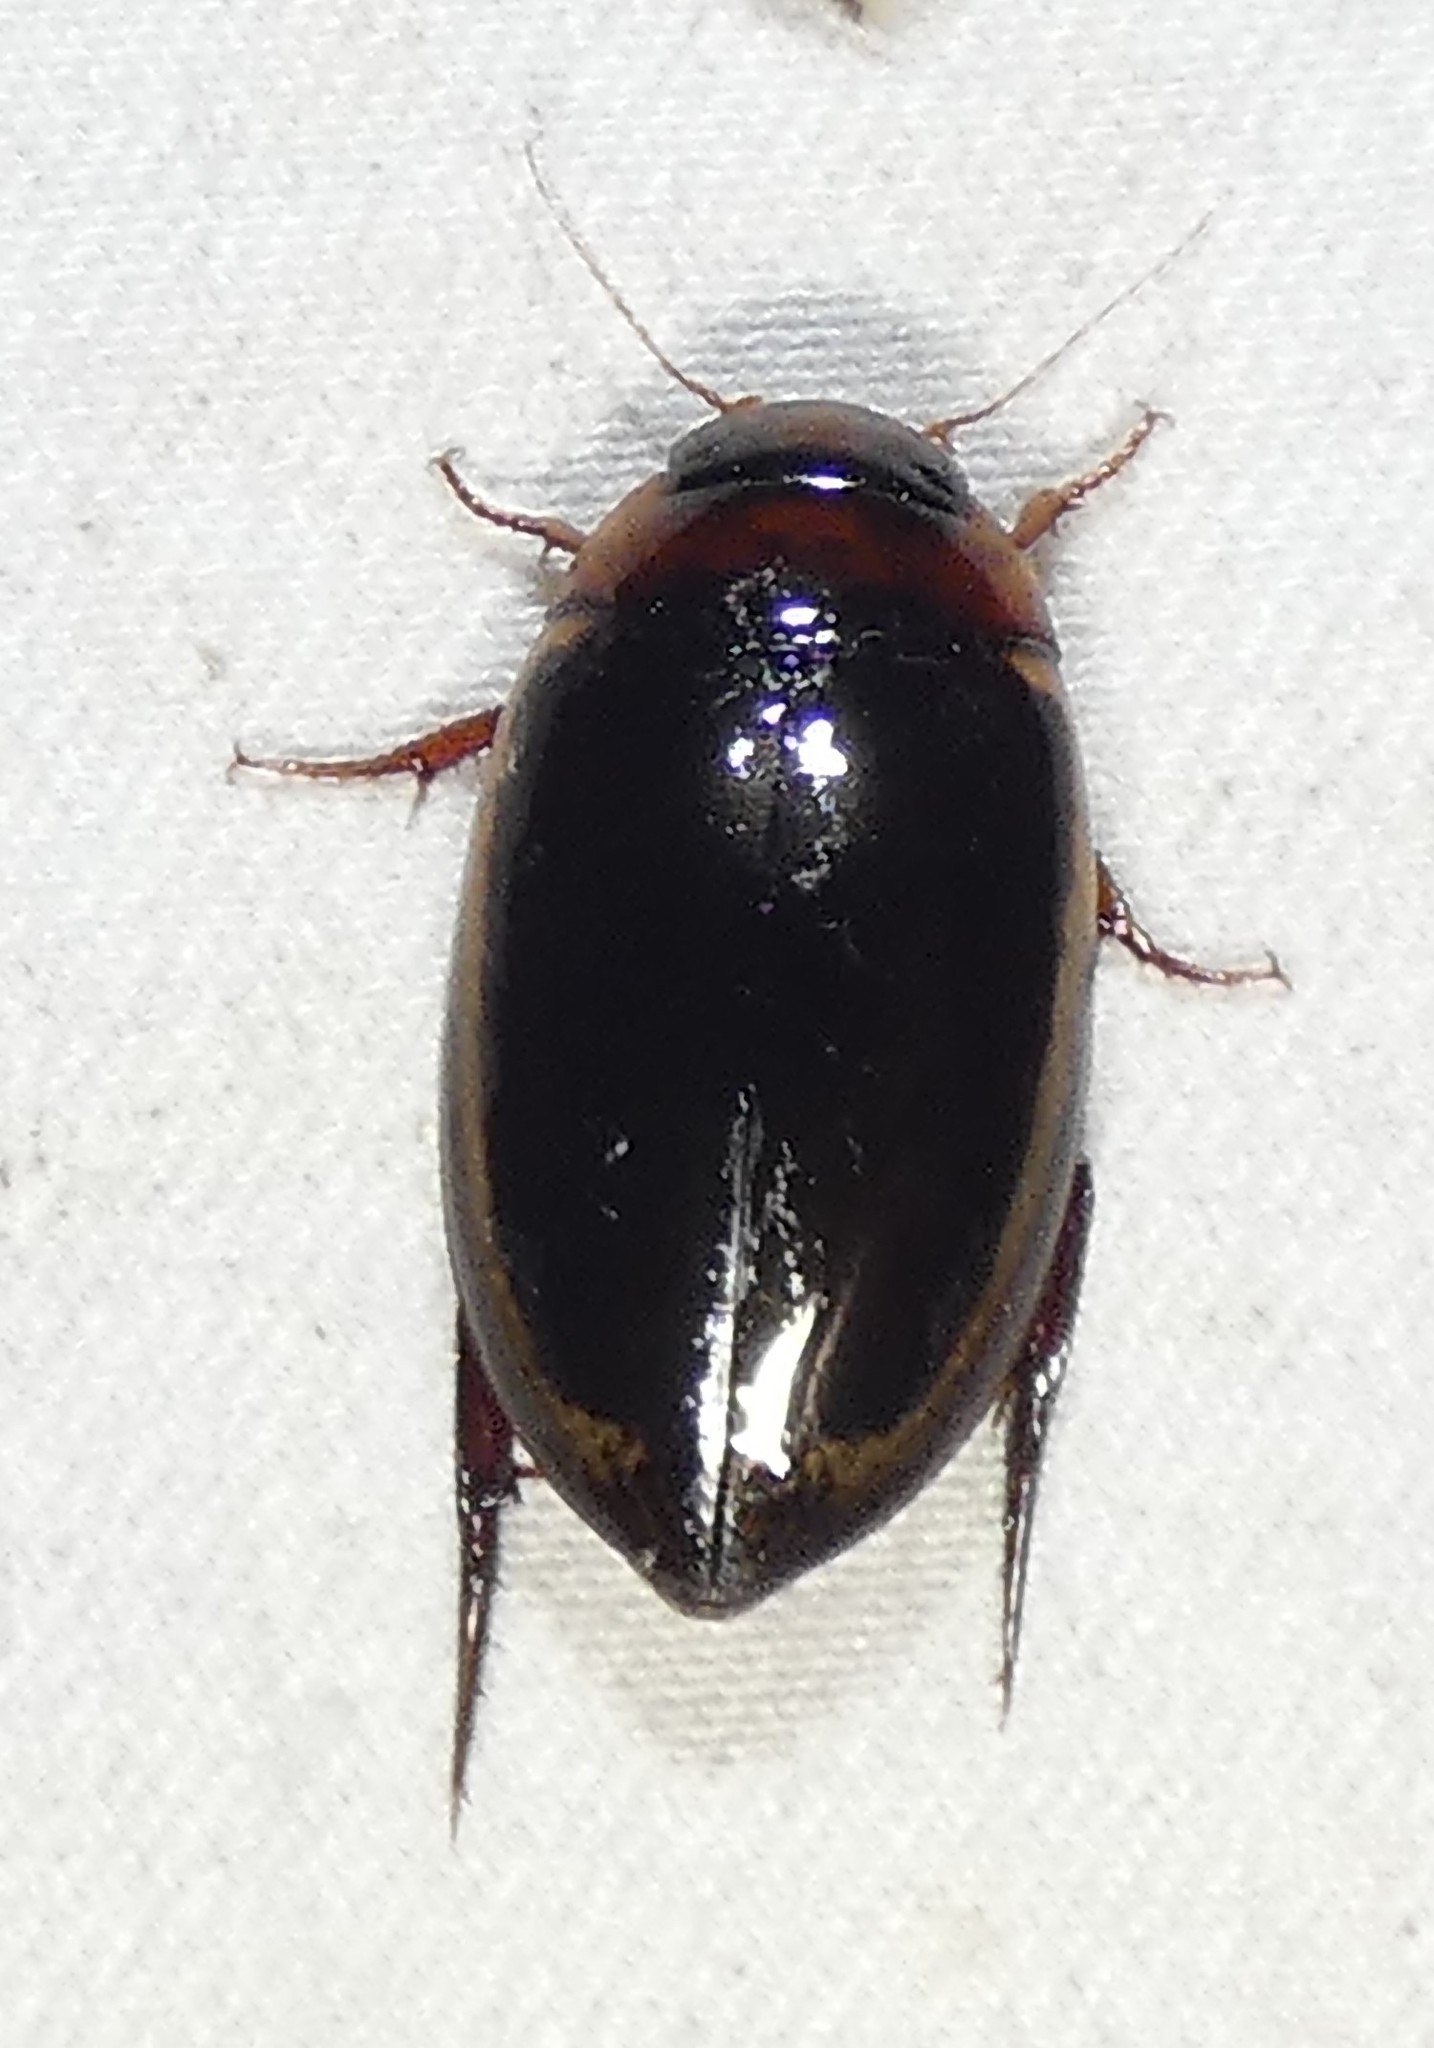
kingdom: Animalia
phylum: Arthropoda
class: Insecta
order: Coleoptera
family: Dytiscidae
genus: Hydaticus
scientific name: Hydaticus bimarginatus
